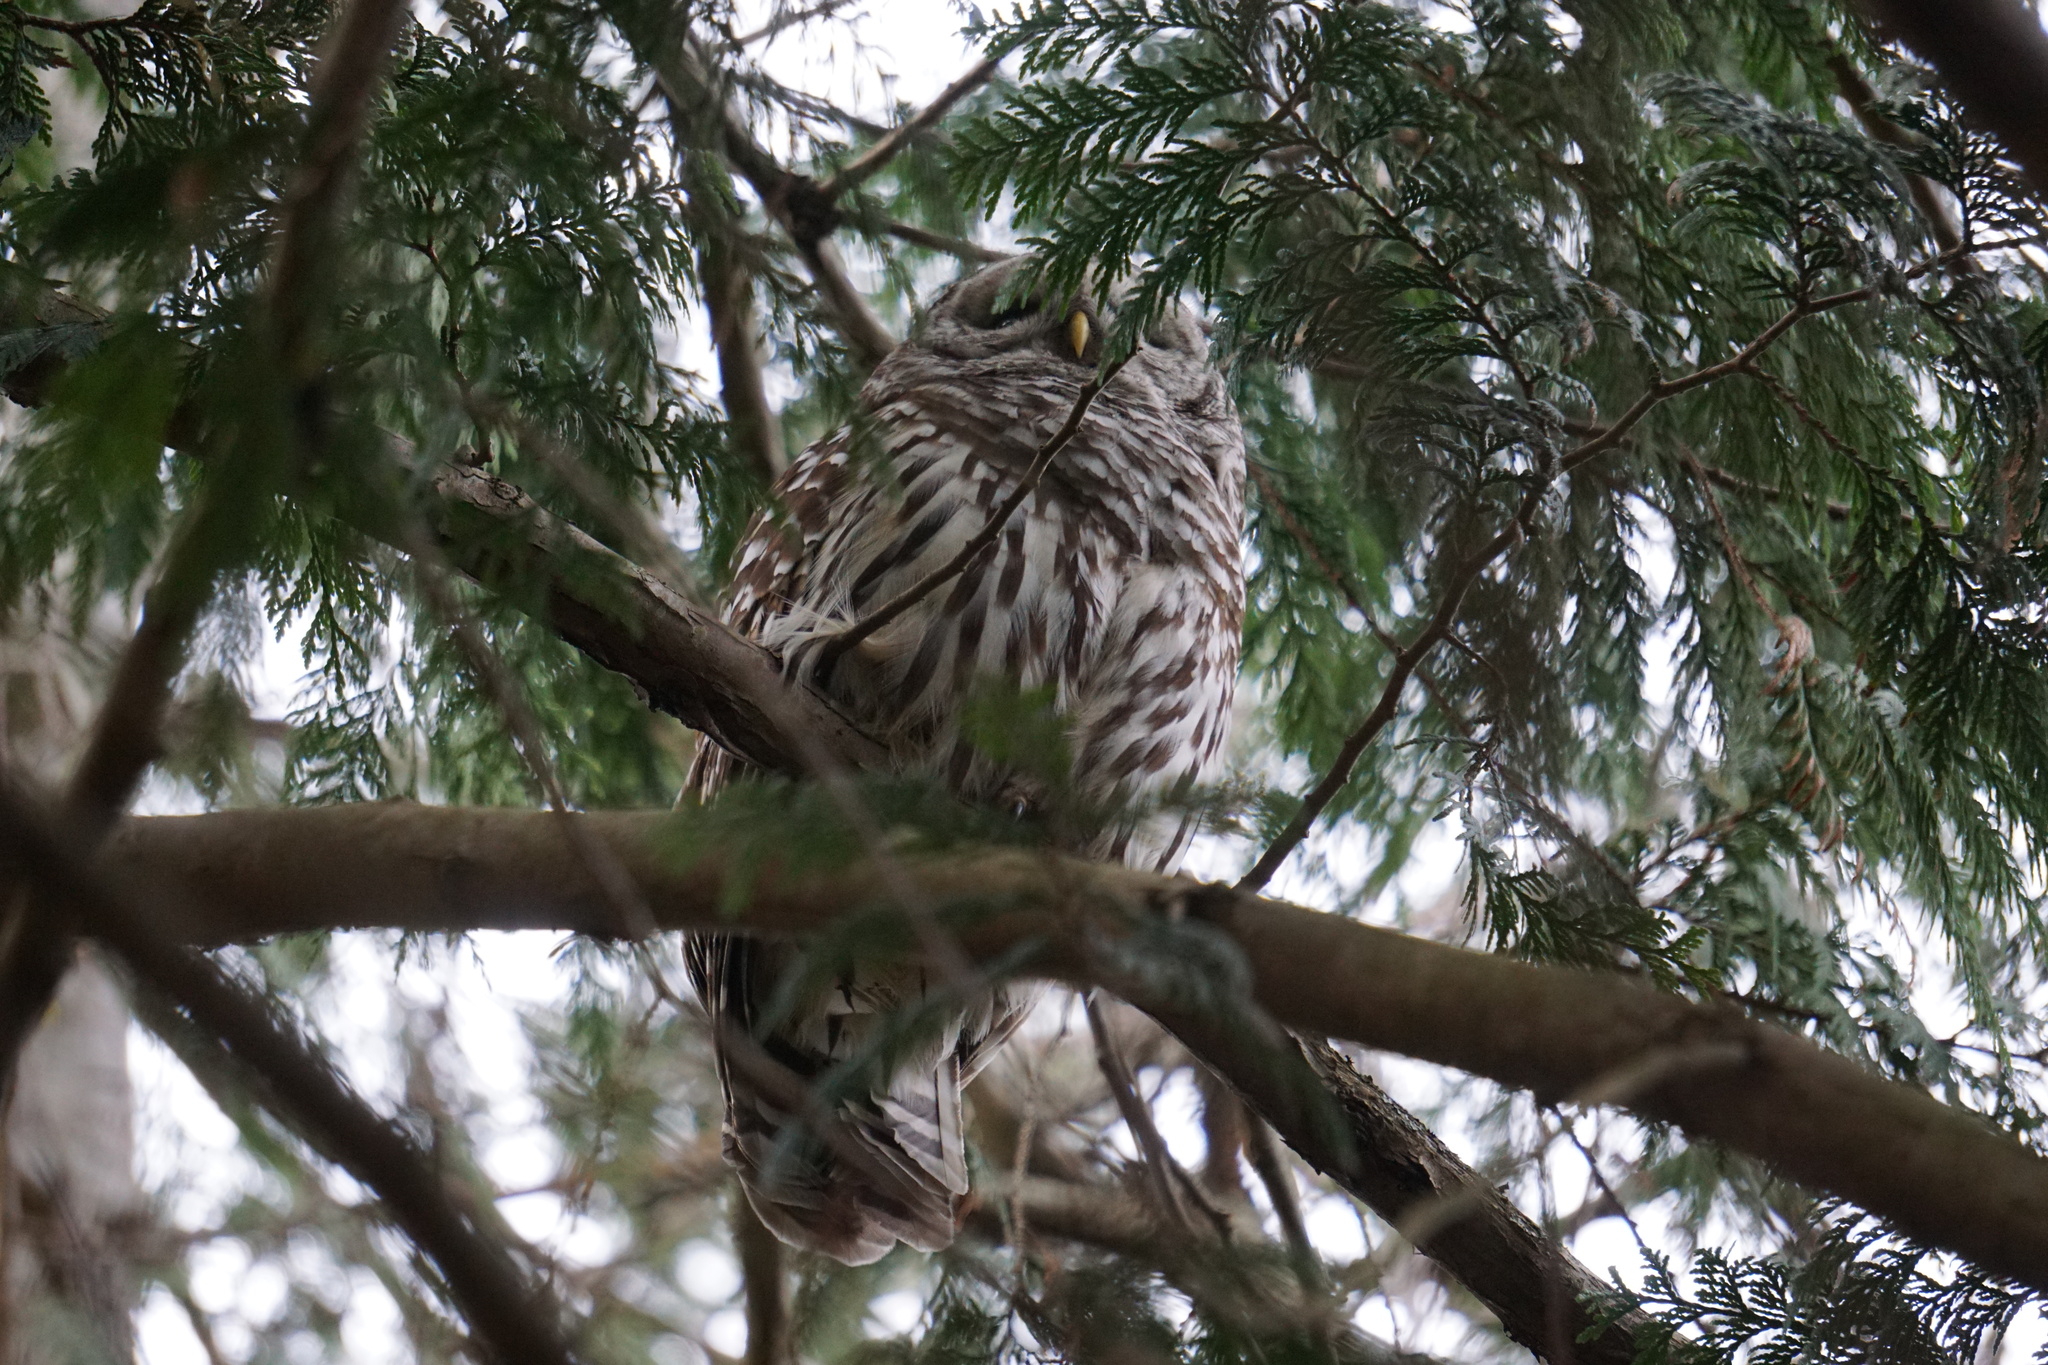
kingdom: Animalia
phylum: Chordata
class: Aves
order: Strigiformes
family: Strigidae
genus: Strix
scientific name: Strix varia
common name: Barred owl
